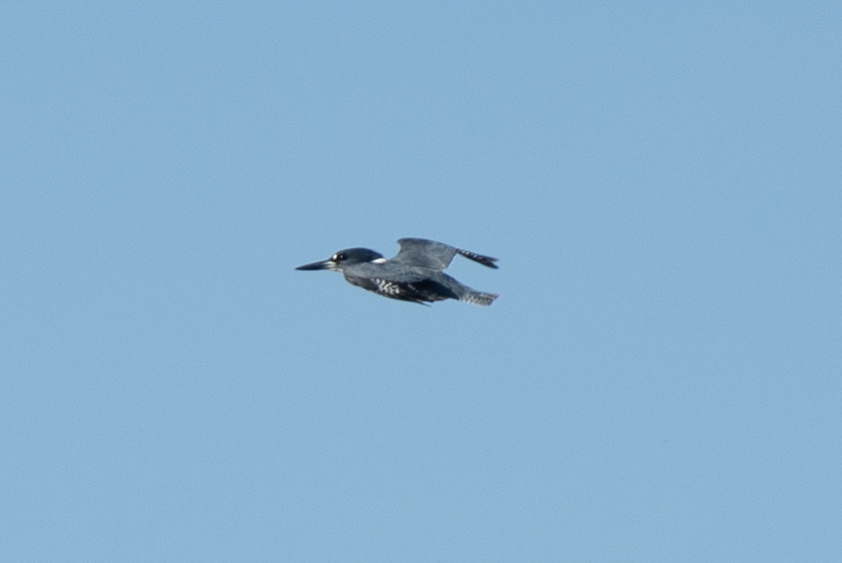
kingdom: Animalia
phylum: Chordata
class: Aves
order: Coraciiformes
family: Alcedinidae
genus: Megaceryle
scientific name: Megaceryle alcyon
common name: Belted kingfisher
